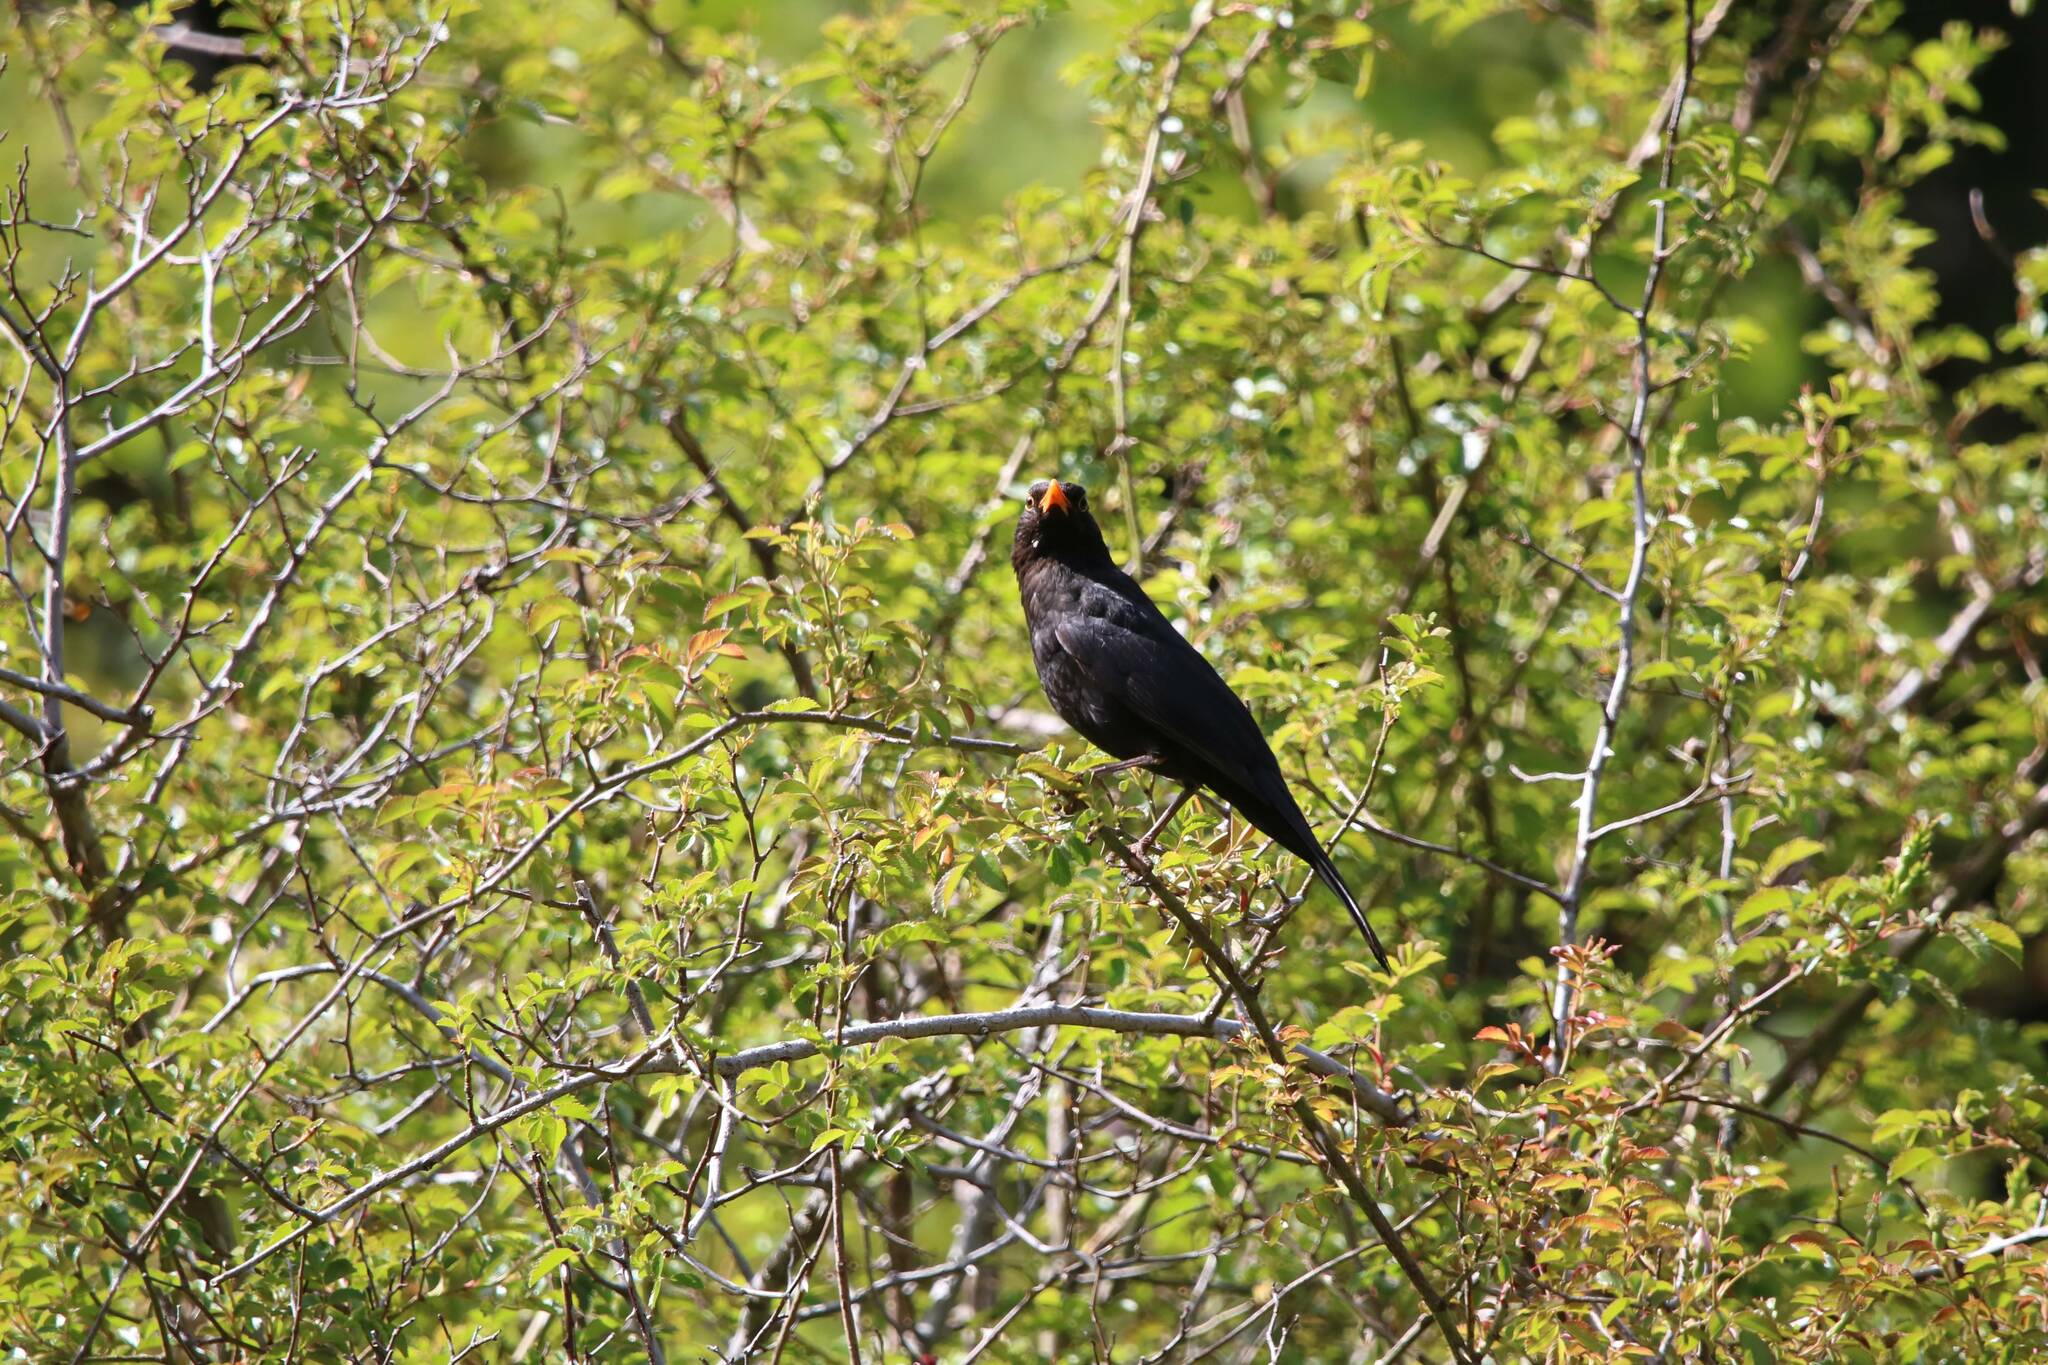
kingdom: Animalia
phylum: Chordata
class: Aves
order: Passeriformes
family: Turdidae
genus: Turdus
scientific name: Turdus merula
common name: Common blackbird
